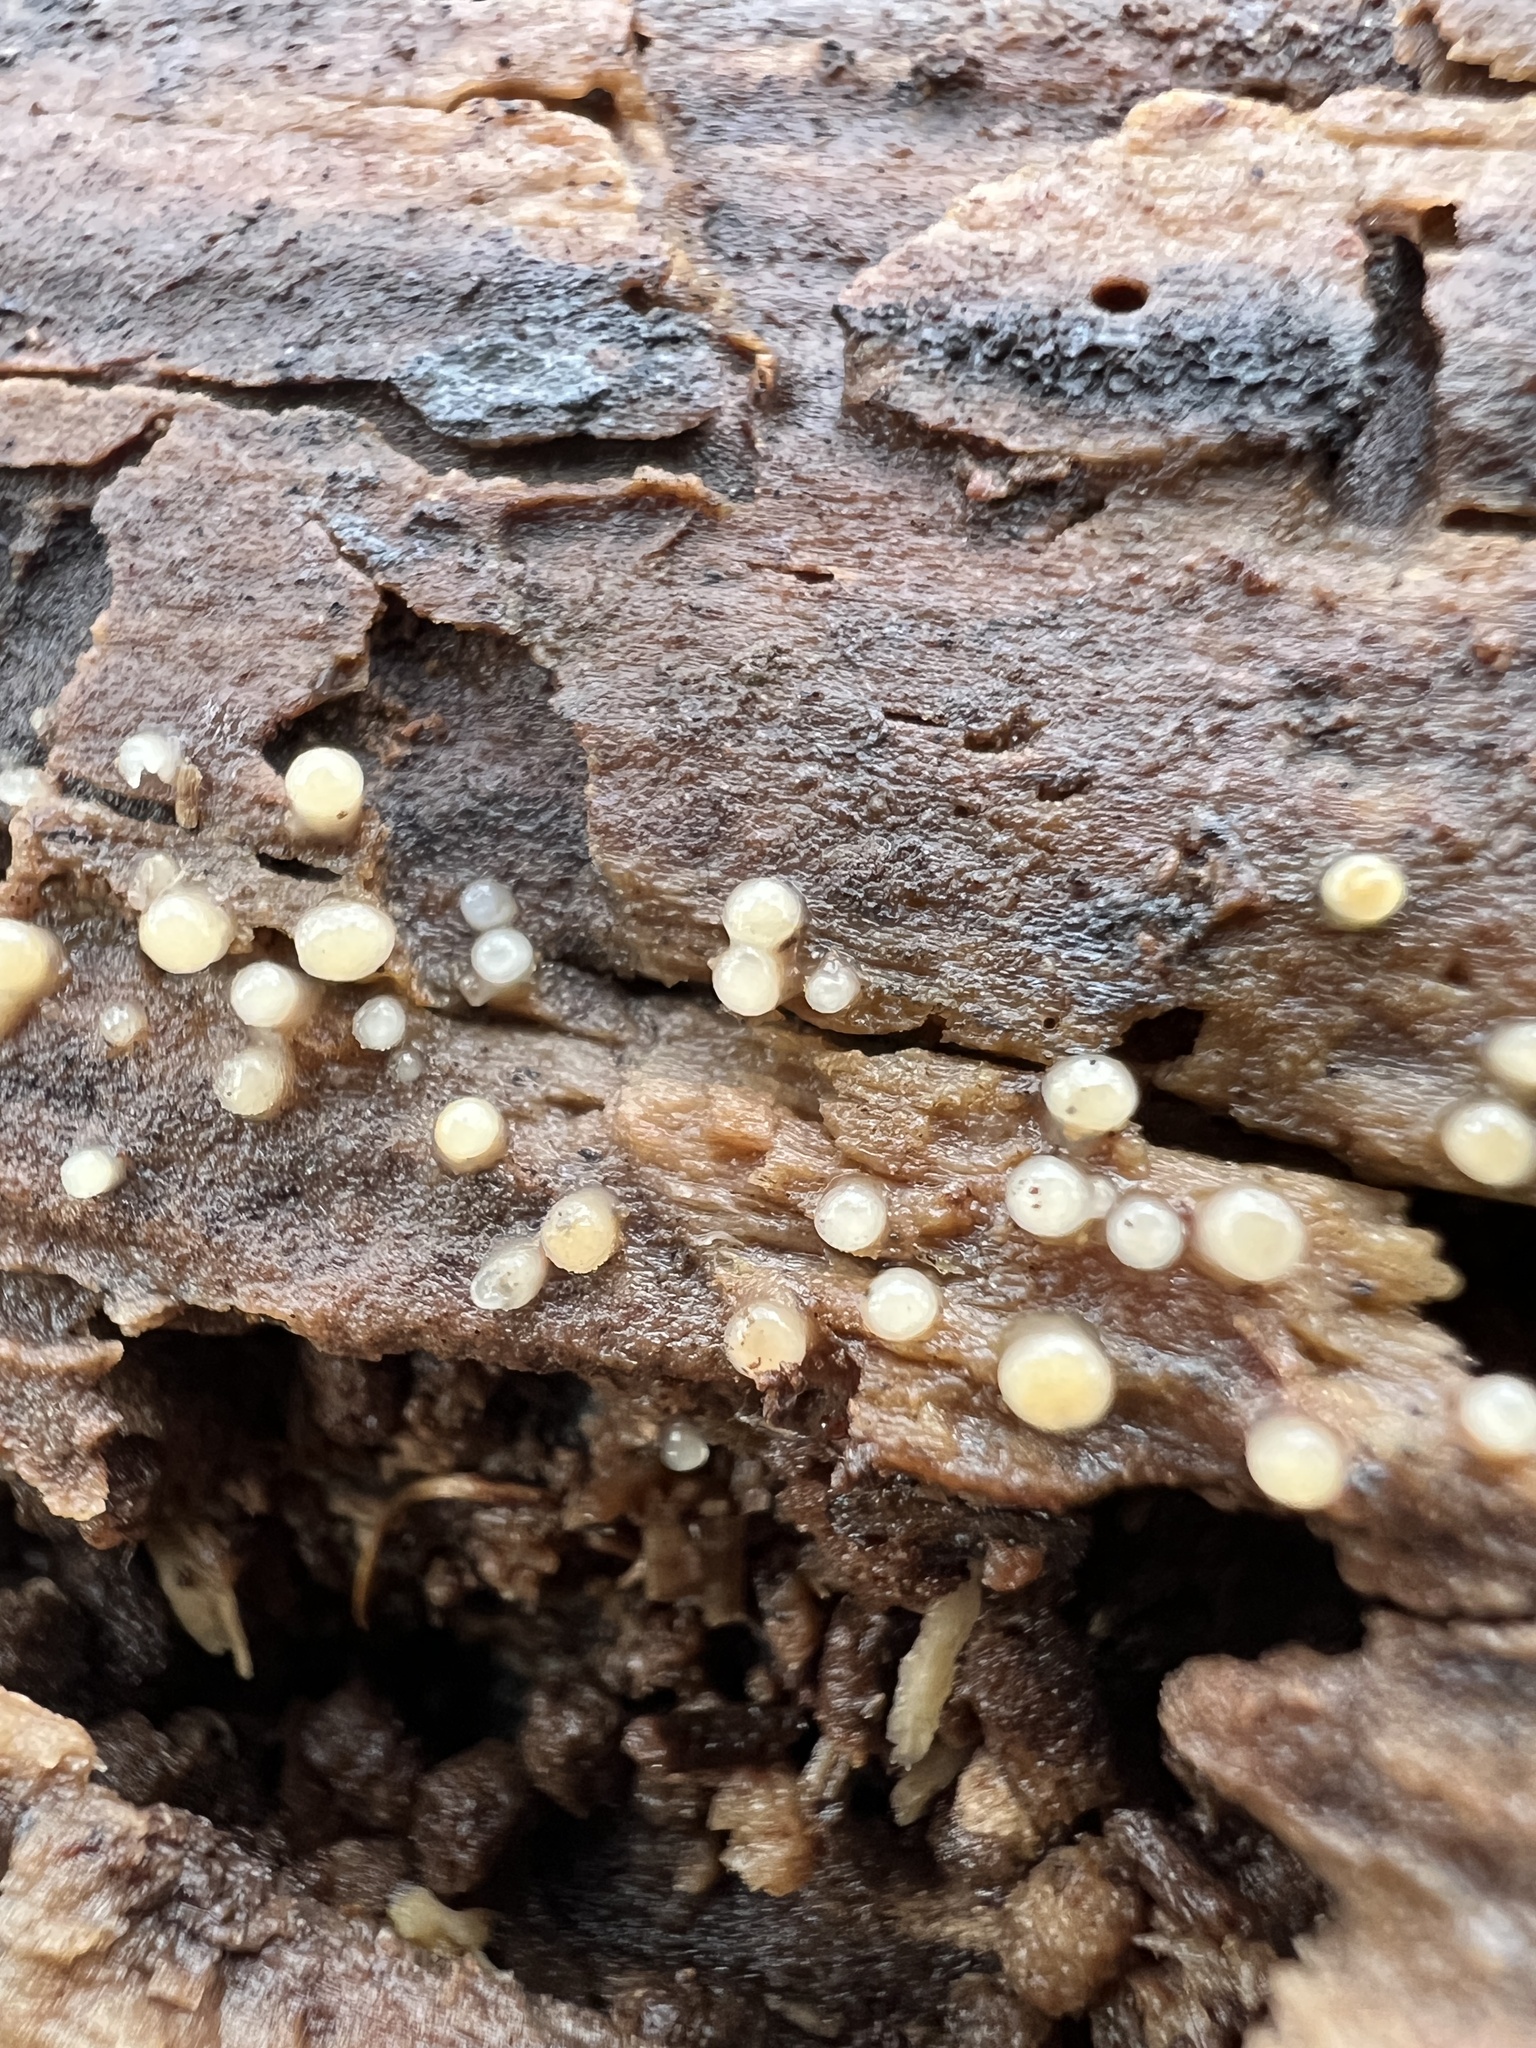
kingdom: Fungi
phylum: Basidiomycota
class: Atractiellomycetes
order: Atractiellales
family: Phleogenaceae
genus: Helicogloea
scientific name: Helicogloea compressa
